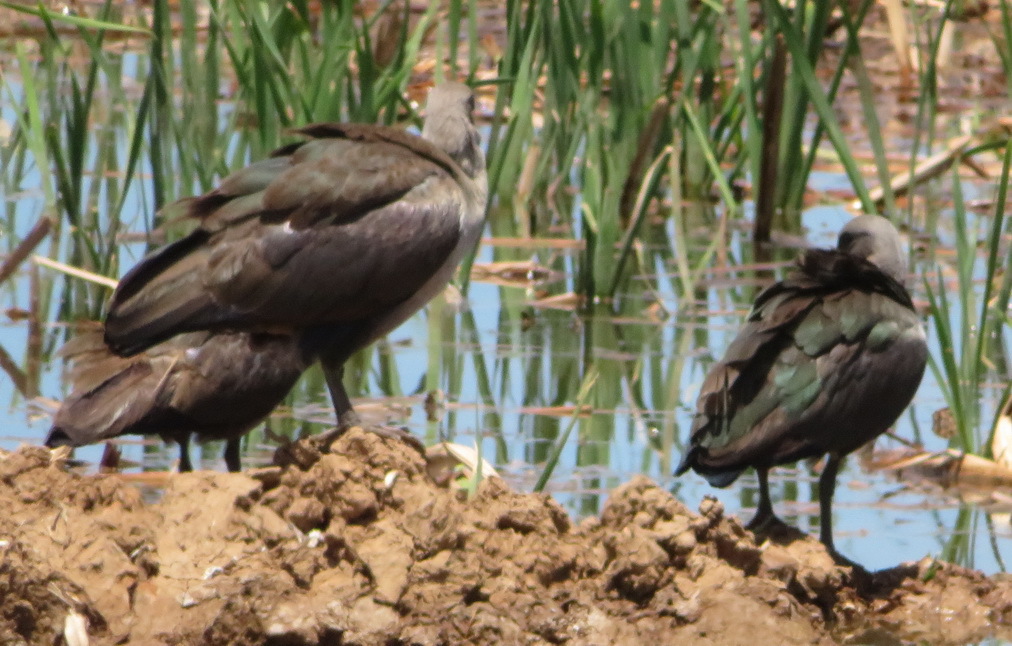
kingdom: Animalia
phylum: Chordata
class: Aves
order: Pelecaniformes
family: Threskiornithidae
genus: Bostrychia
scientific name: Bostrychia hagedash
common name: Hadada ibis
